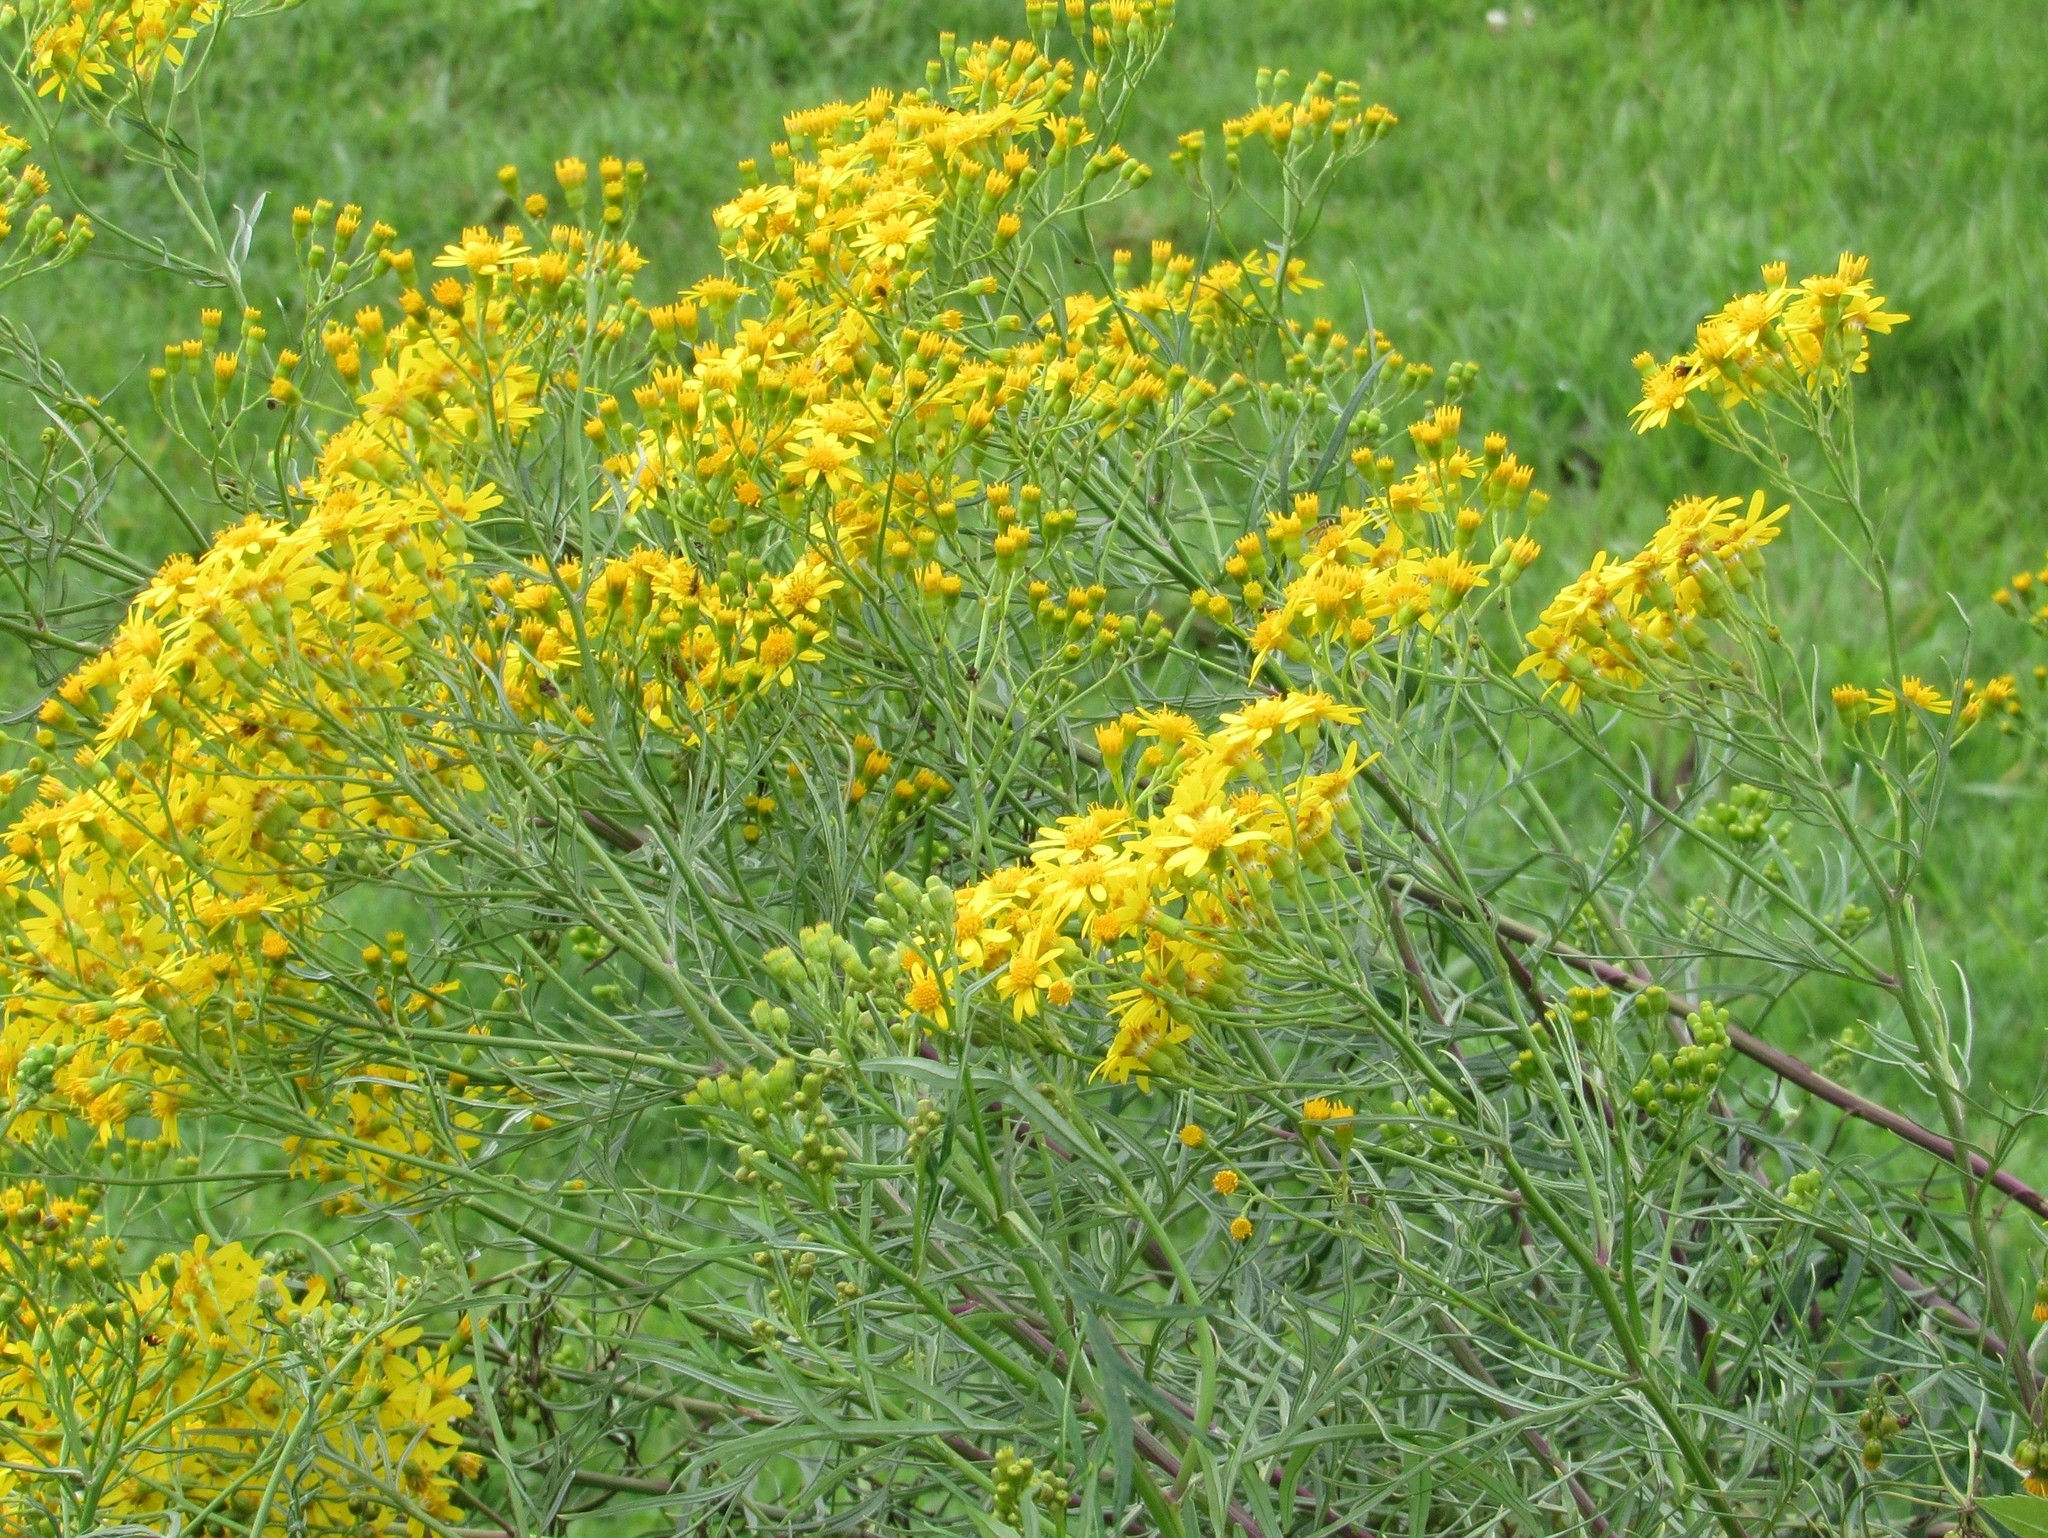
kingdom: Plantae
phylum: Tracheophyta
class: Magnoliopsida
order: Asterales
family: Asteraceae
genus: Senecio
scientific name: Senecio brasiliensis
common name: Hemp-leaf ragwort
